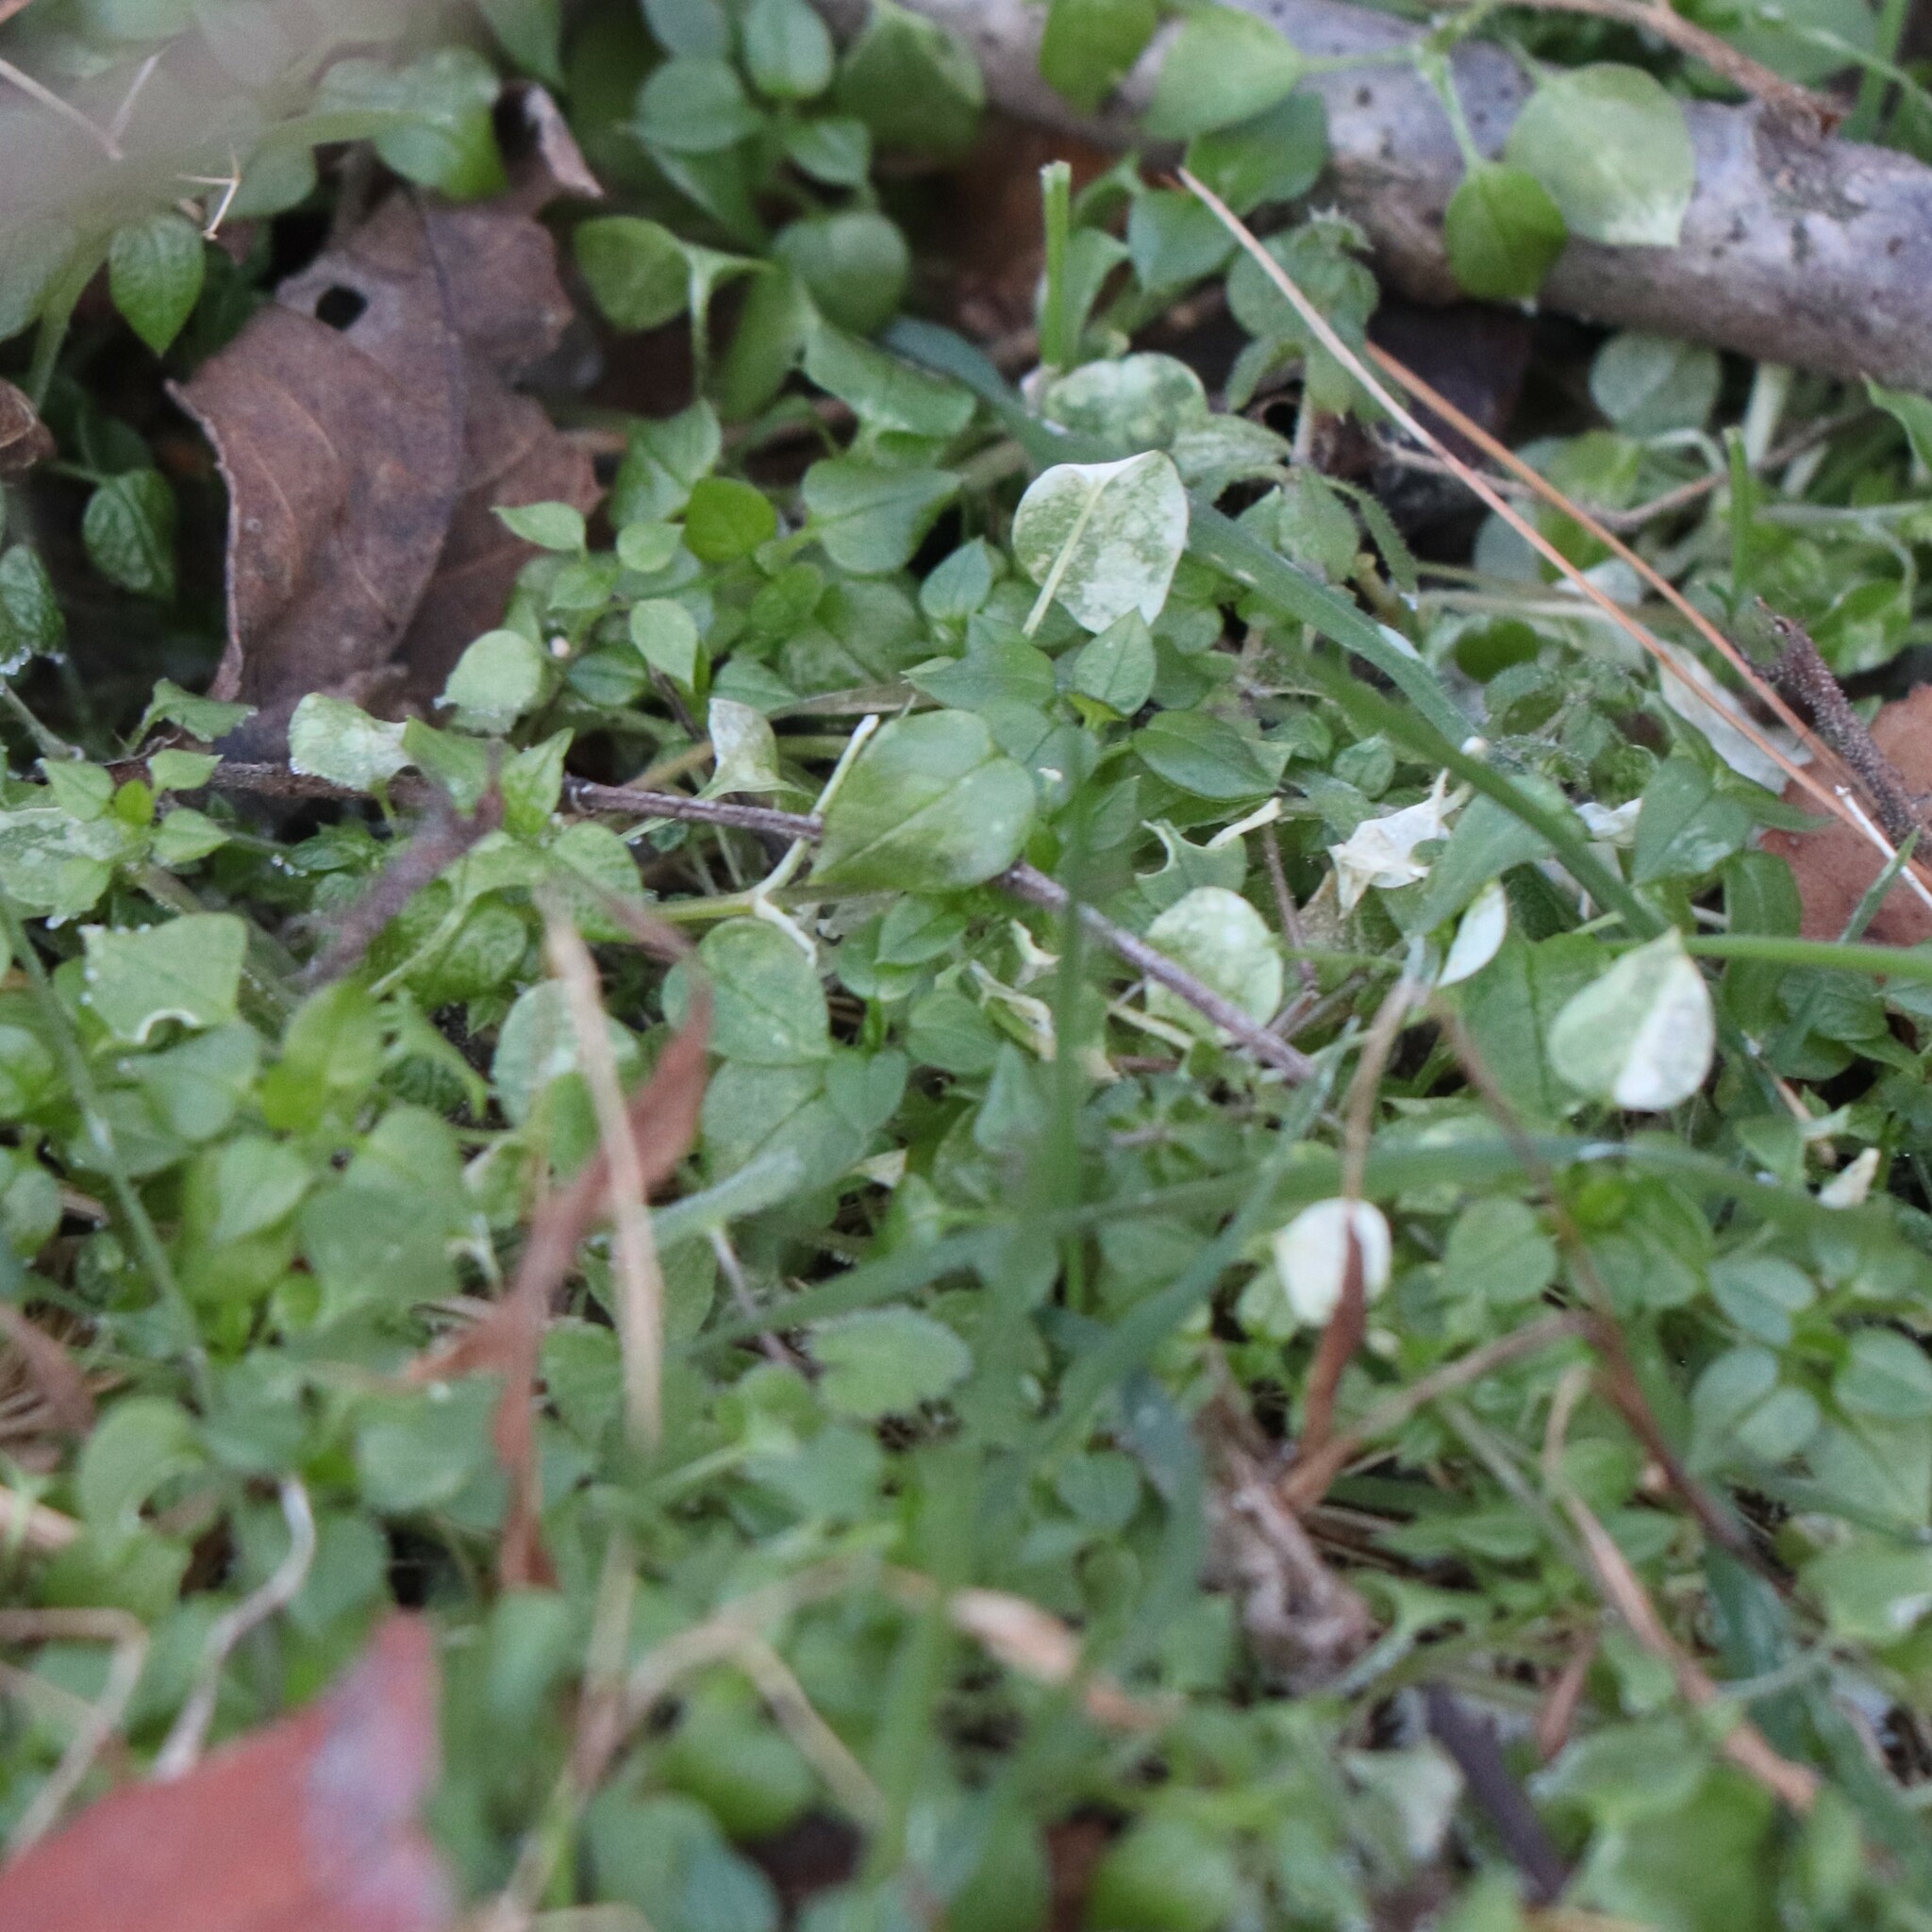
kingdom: Plantae
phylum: Tracheophyta
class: Magnoliopsida
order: Caryophyllales
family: Caryophyllaceae
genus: Stellaria
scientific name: Stellaria media
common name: Common chickweed
